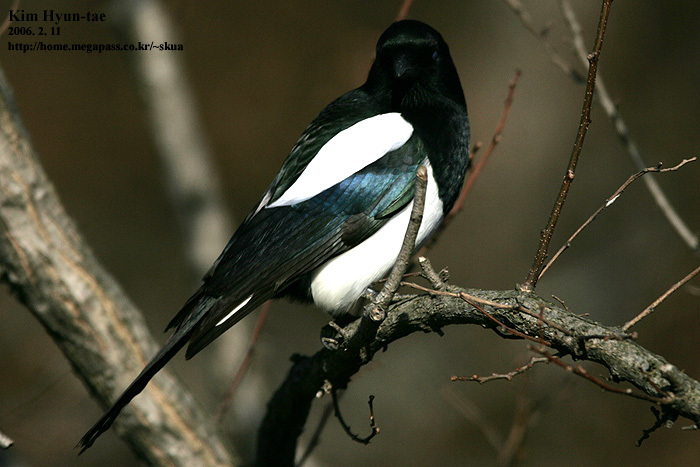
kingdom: Animalia
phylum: Chordata
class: Aves
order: Passeriformes
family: Corvidae
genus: Pica
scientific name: Pica serica
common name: Oriental magpie
